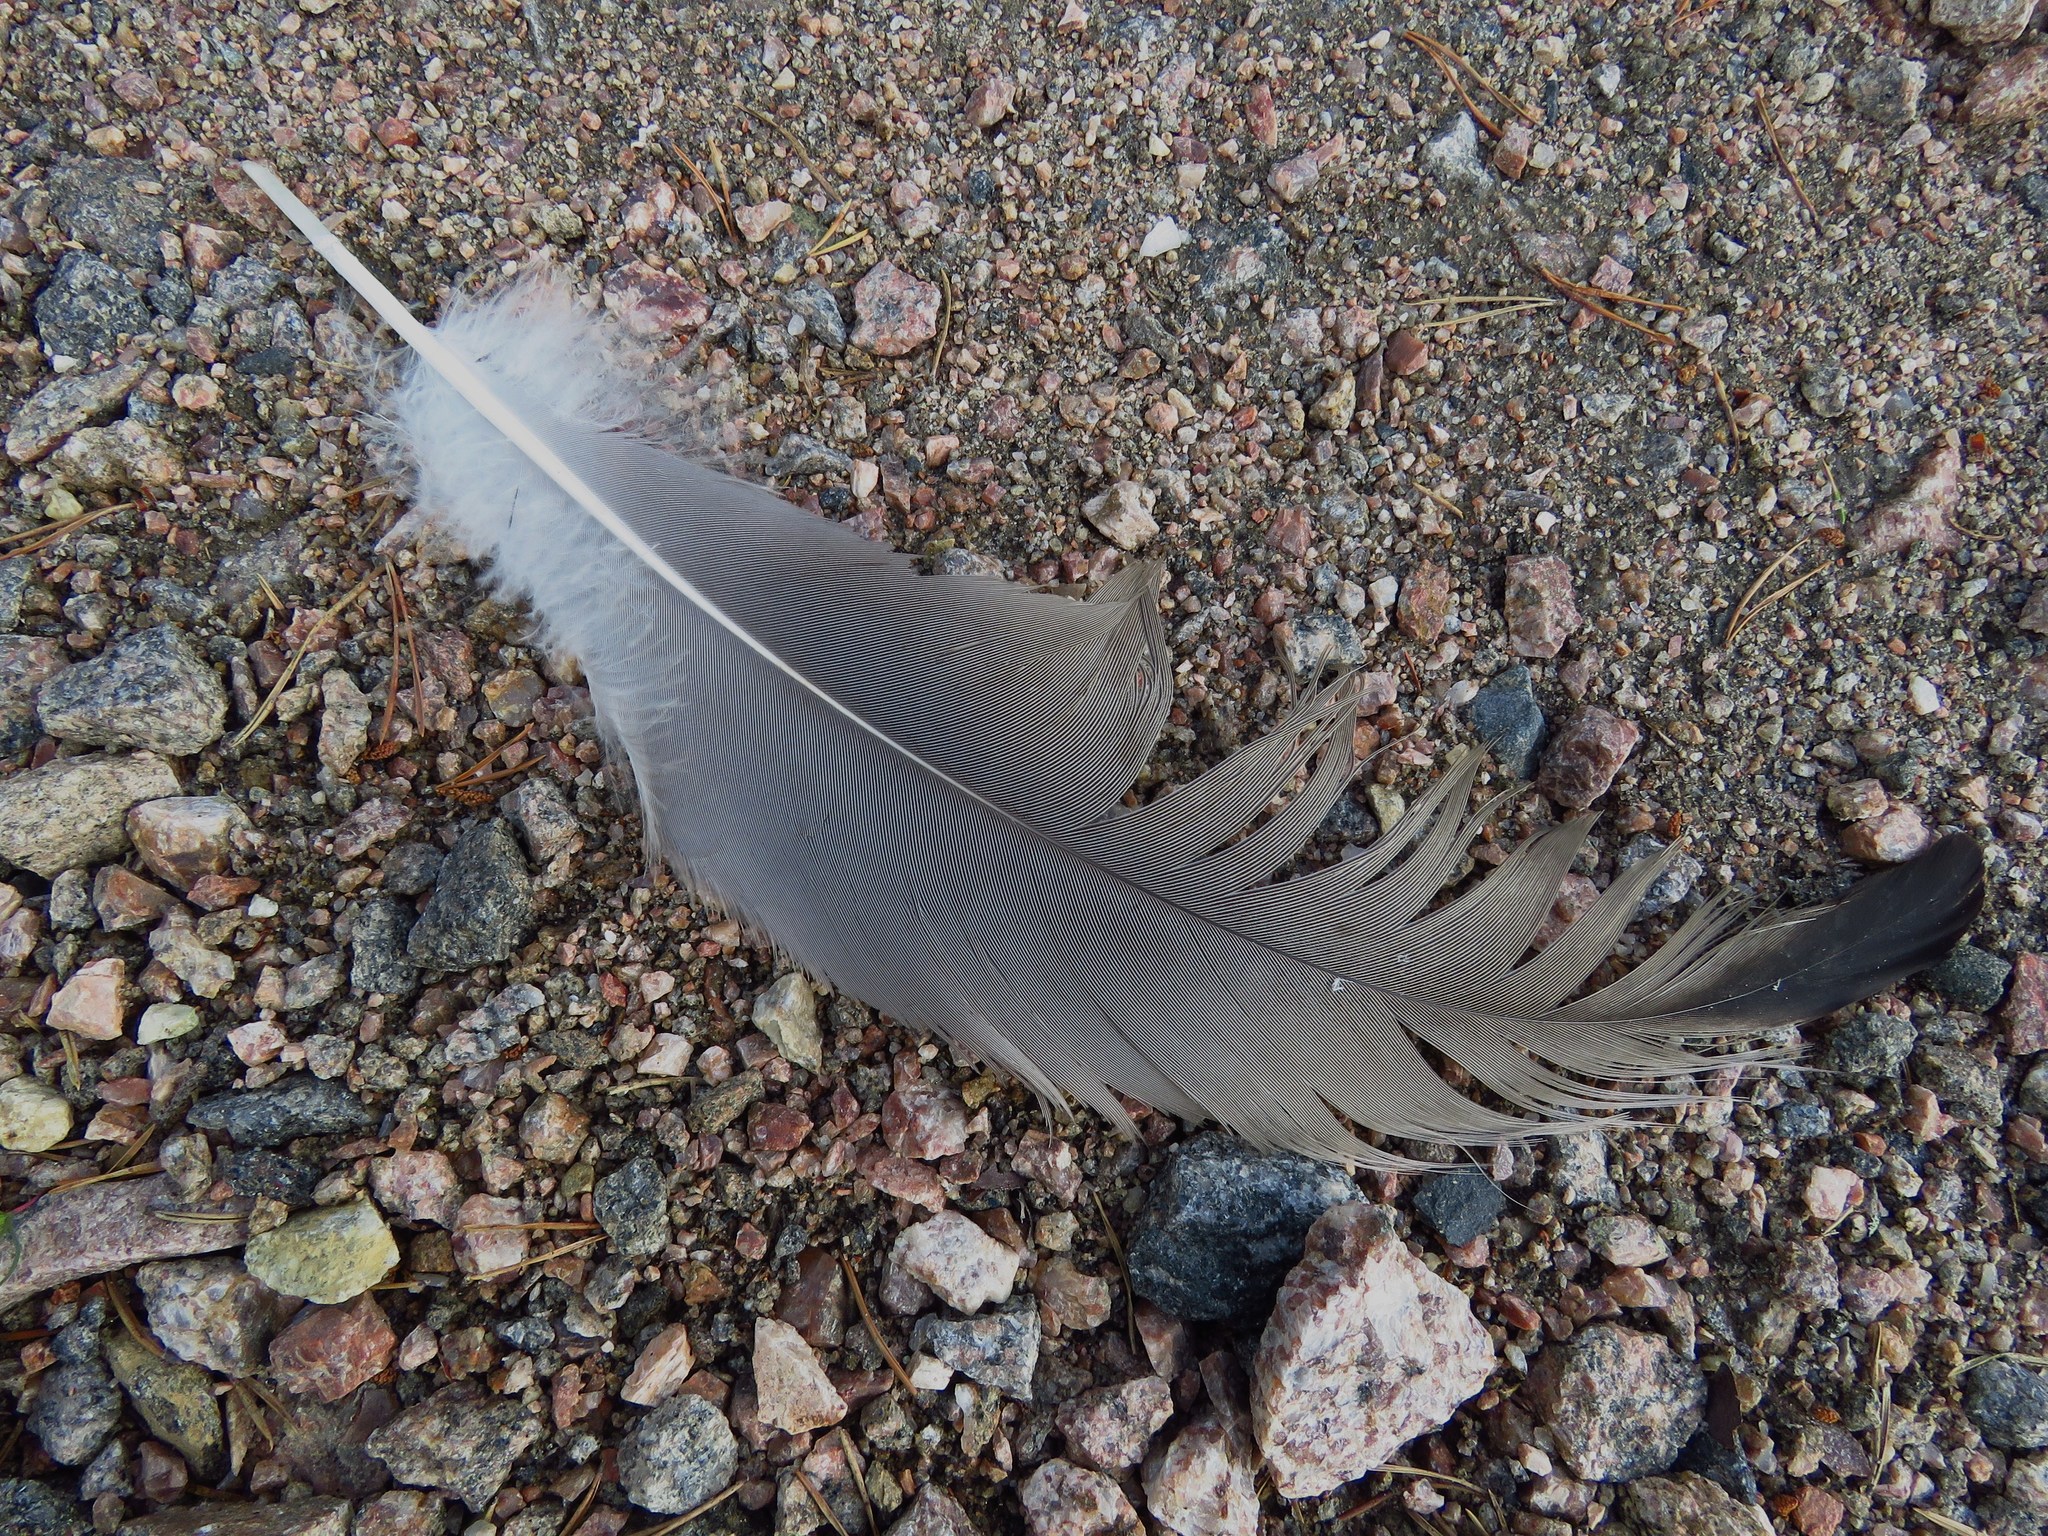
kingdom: Animalia
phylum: Chordata
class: Aves
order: Gruiformes
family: Gruidae
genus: Grus
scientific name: Grus grus
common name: Common crane
